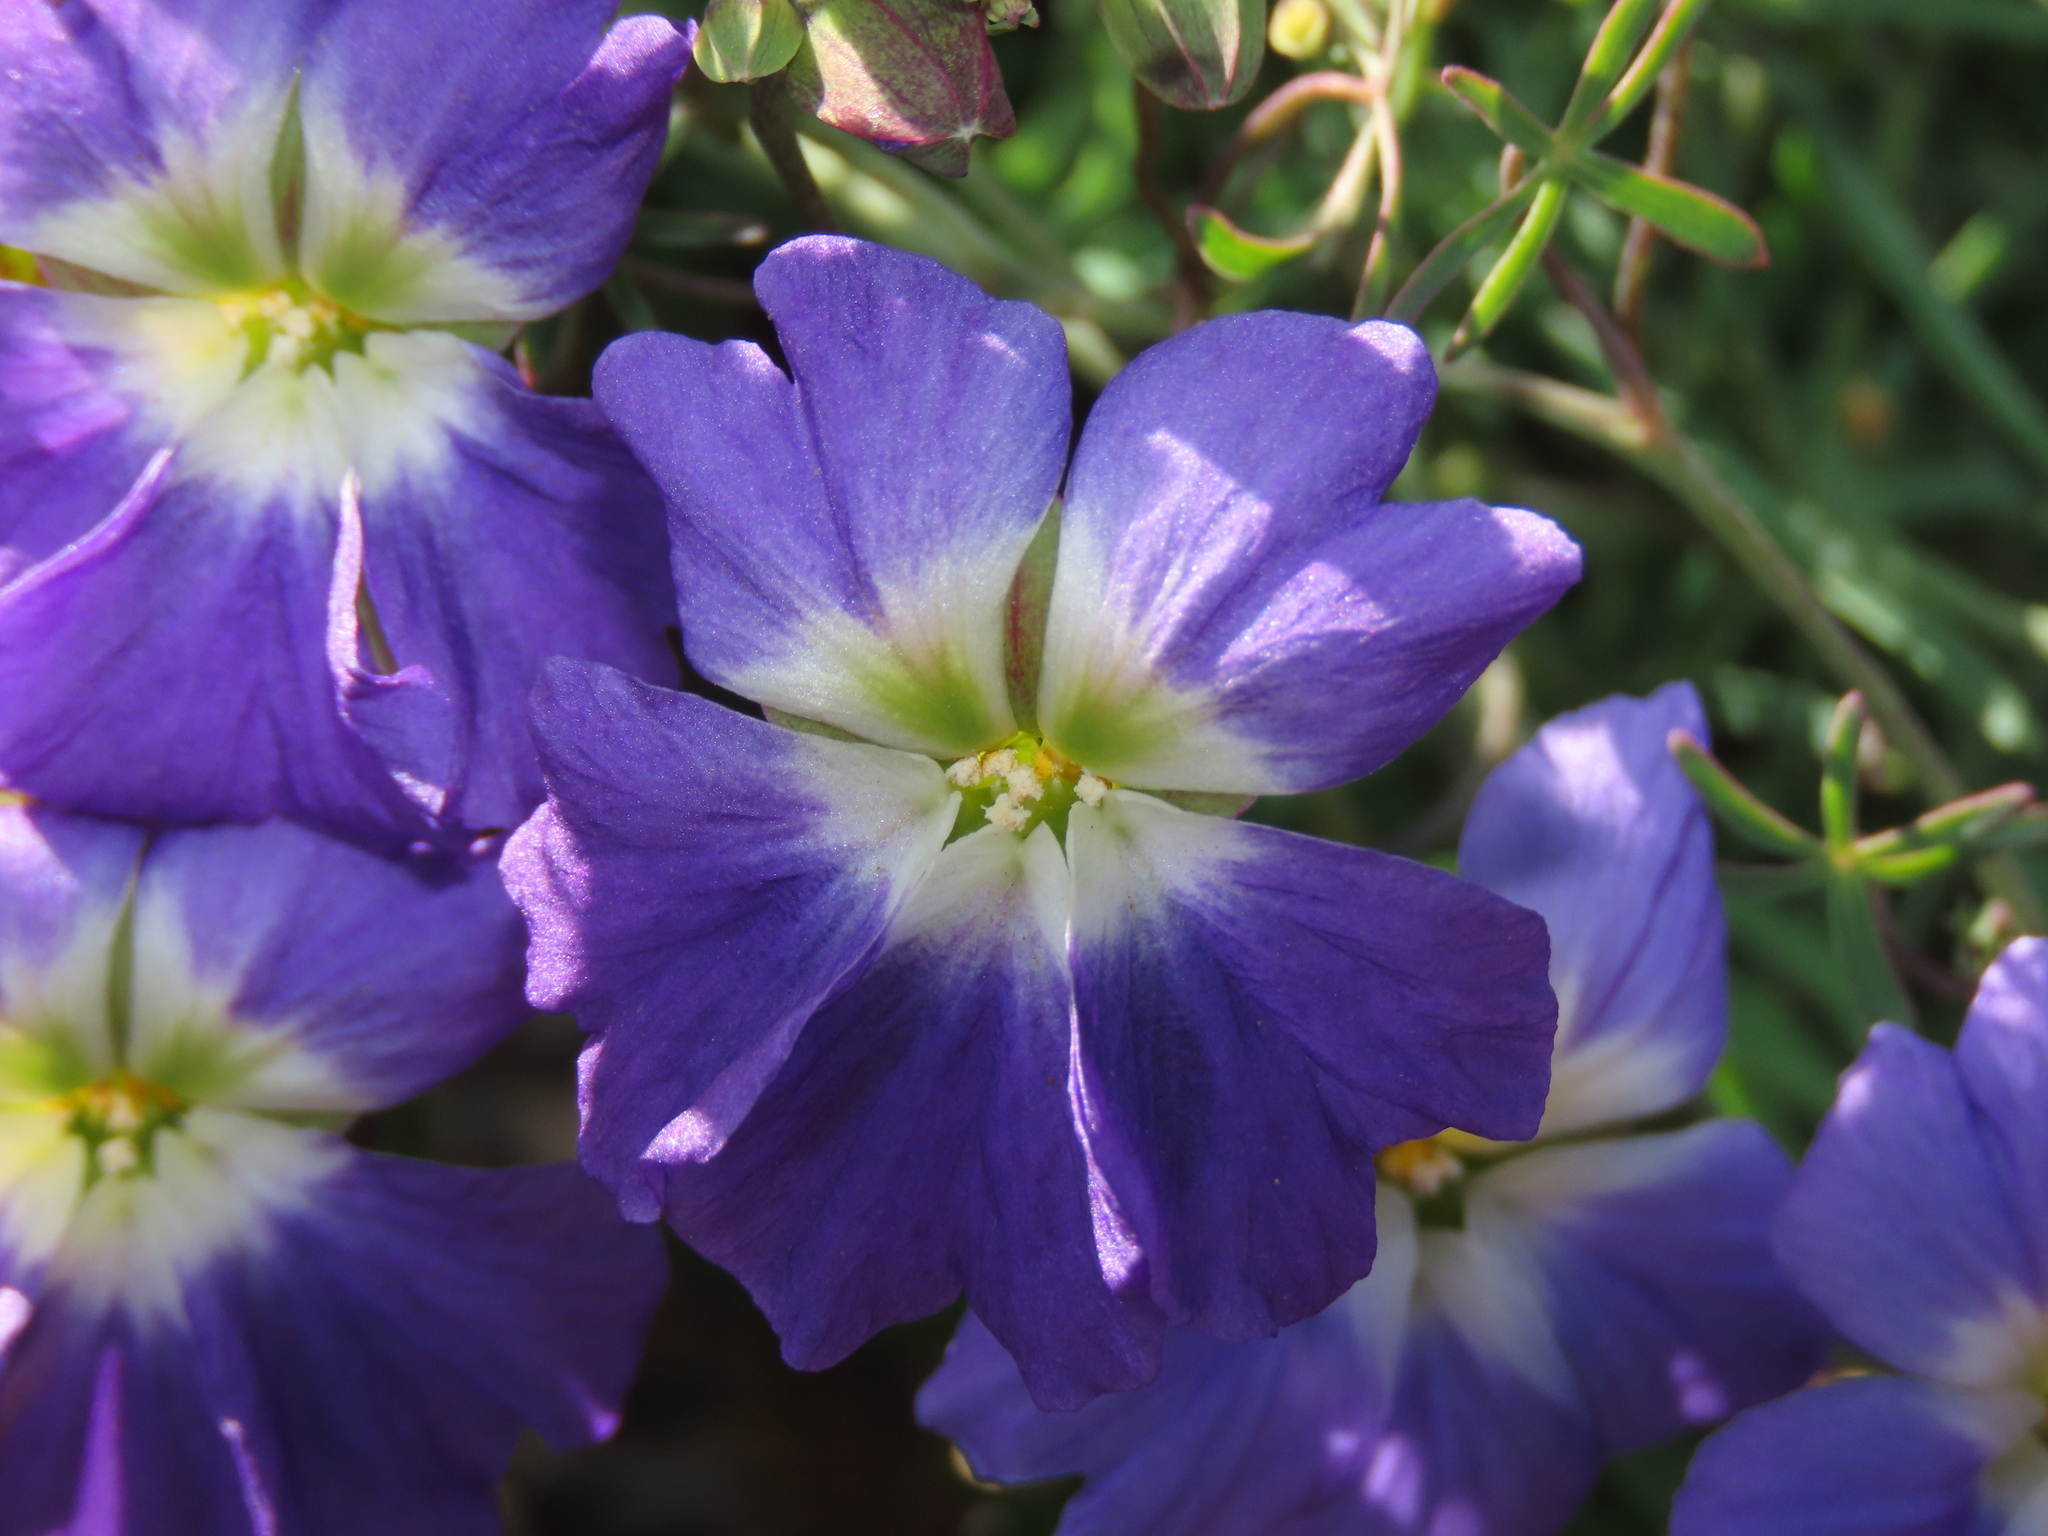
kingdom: Plantae
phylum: Tracheophyta
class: Magnoliopsida
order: Brassicales
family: Tropaeolaceae
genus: Tropaeolum
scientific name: Tropaeolum azureum
